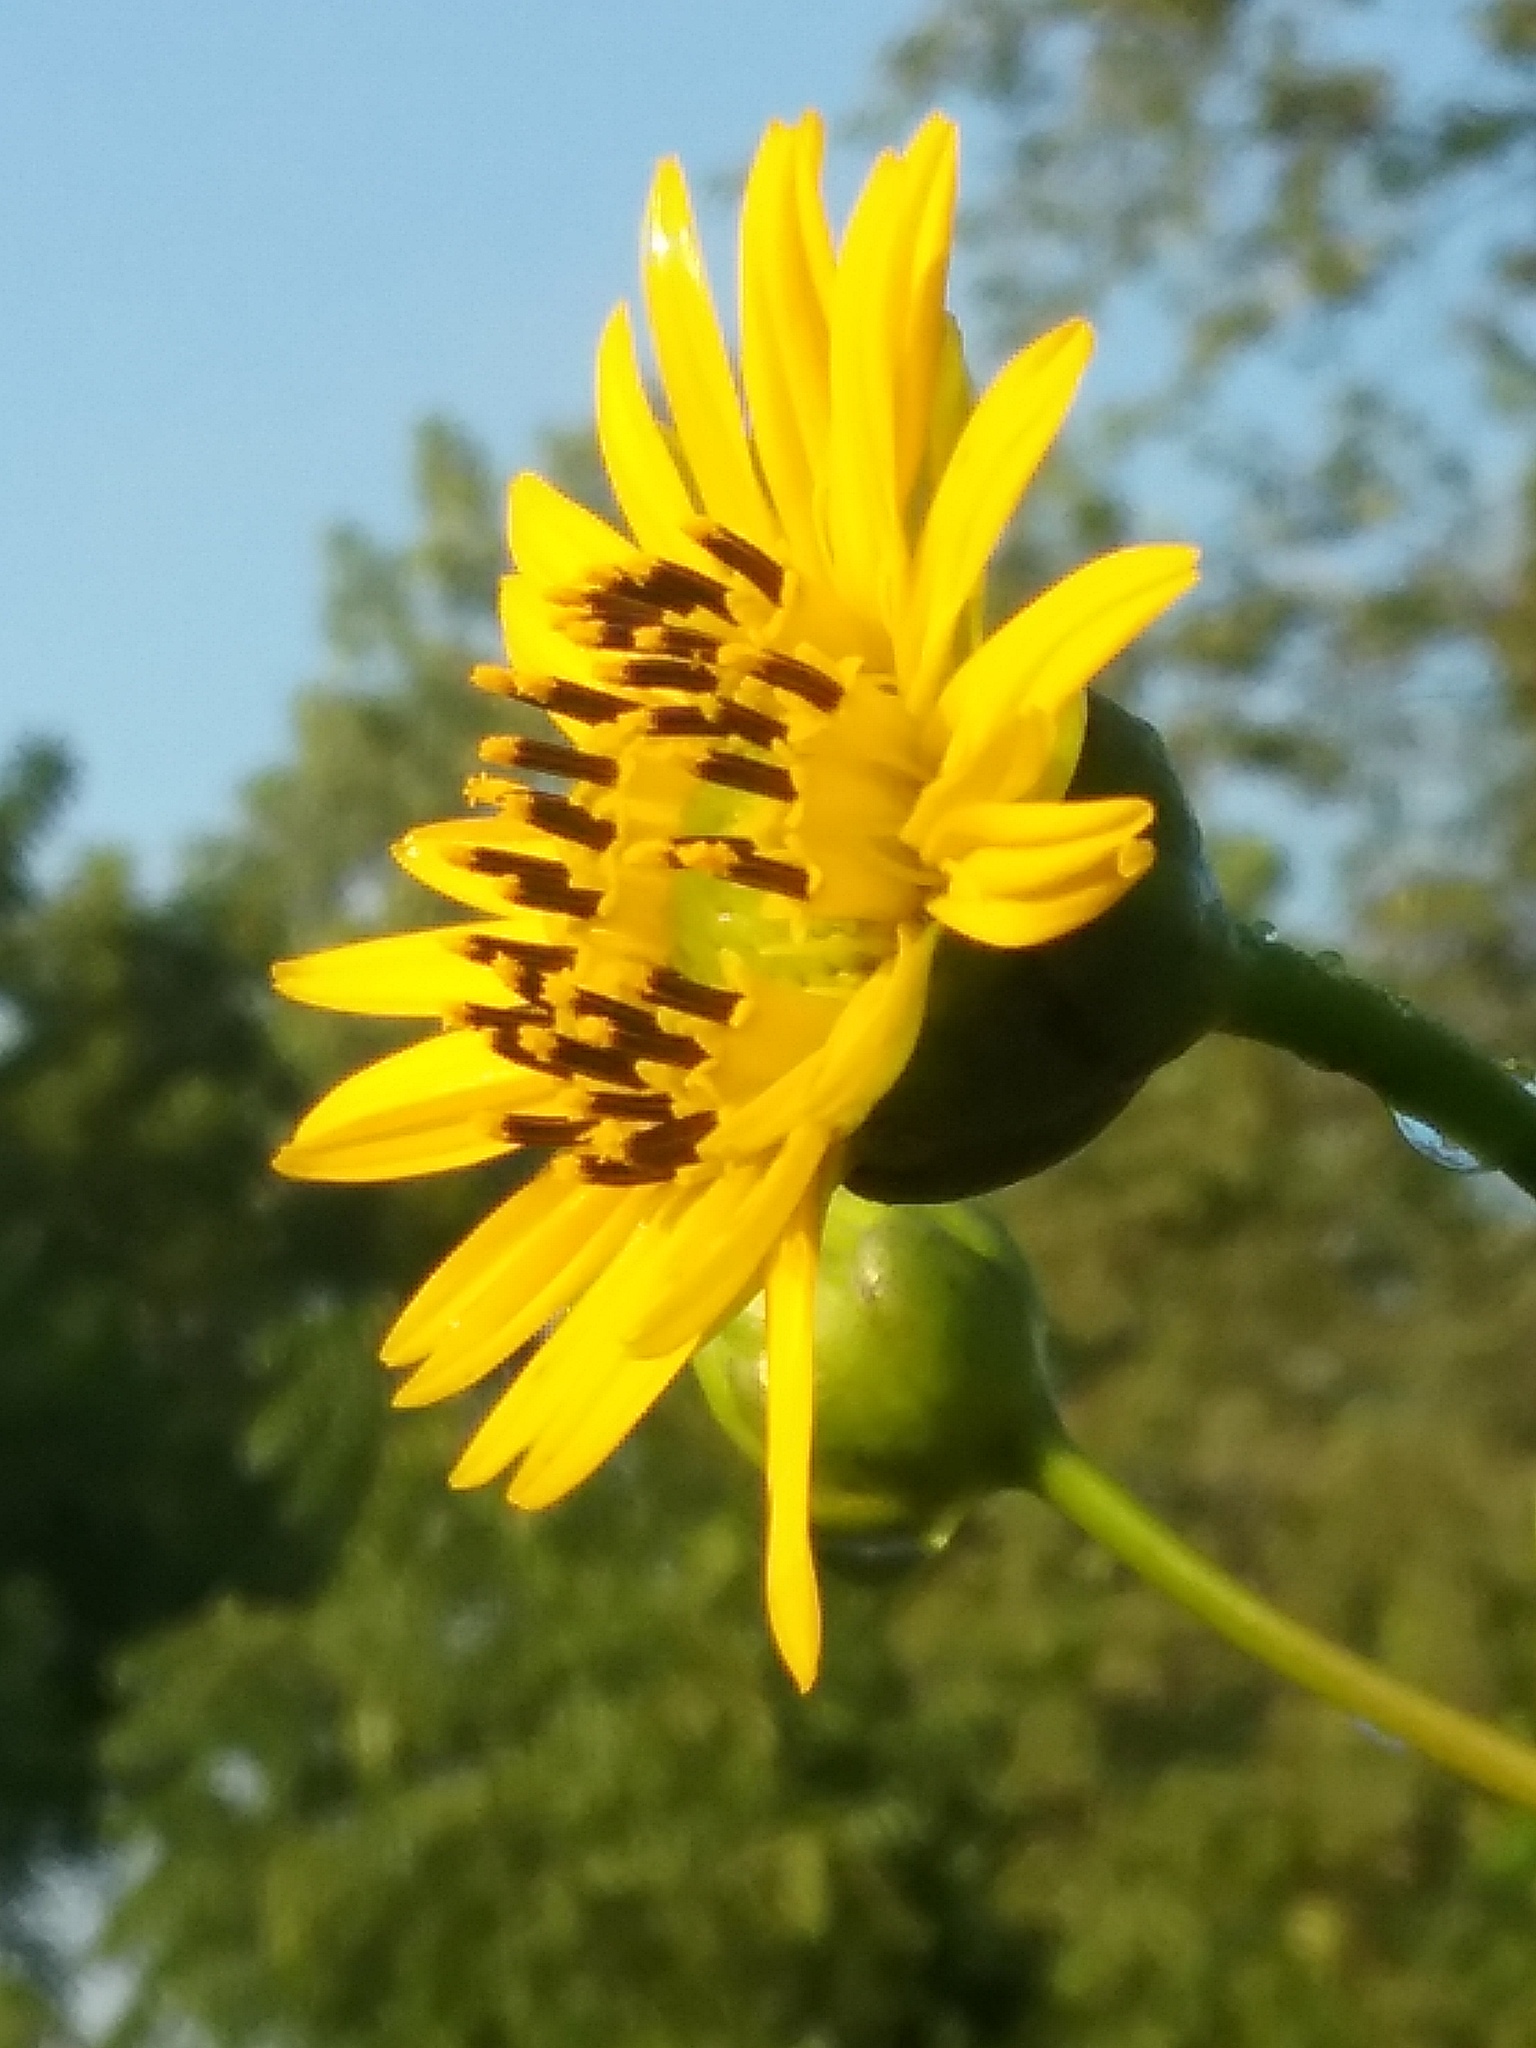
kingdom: Plantae
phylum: Tracheophyta
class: Magnoliopsida
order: Asterales
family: Asteraceae
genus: Silphium
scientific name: Silphium terebinthinaceum
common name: Basal-leaf rosinweed
